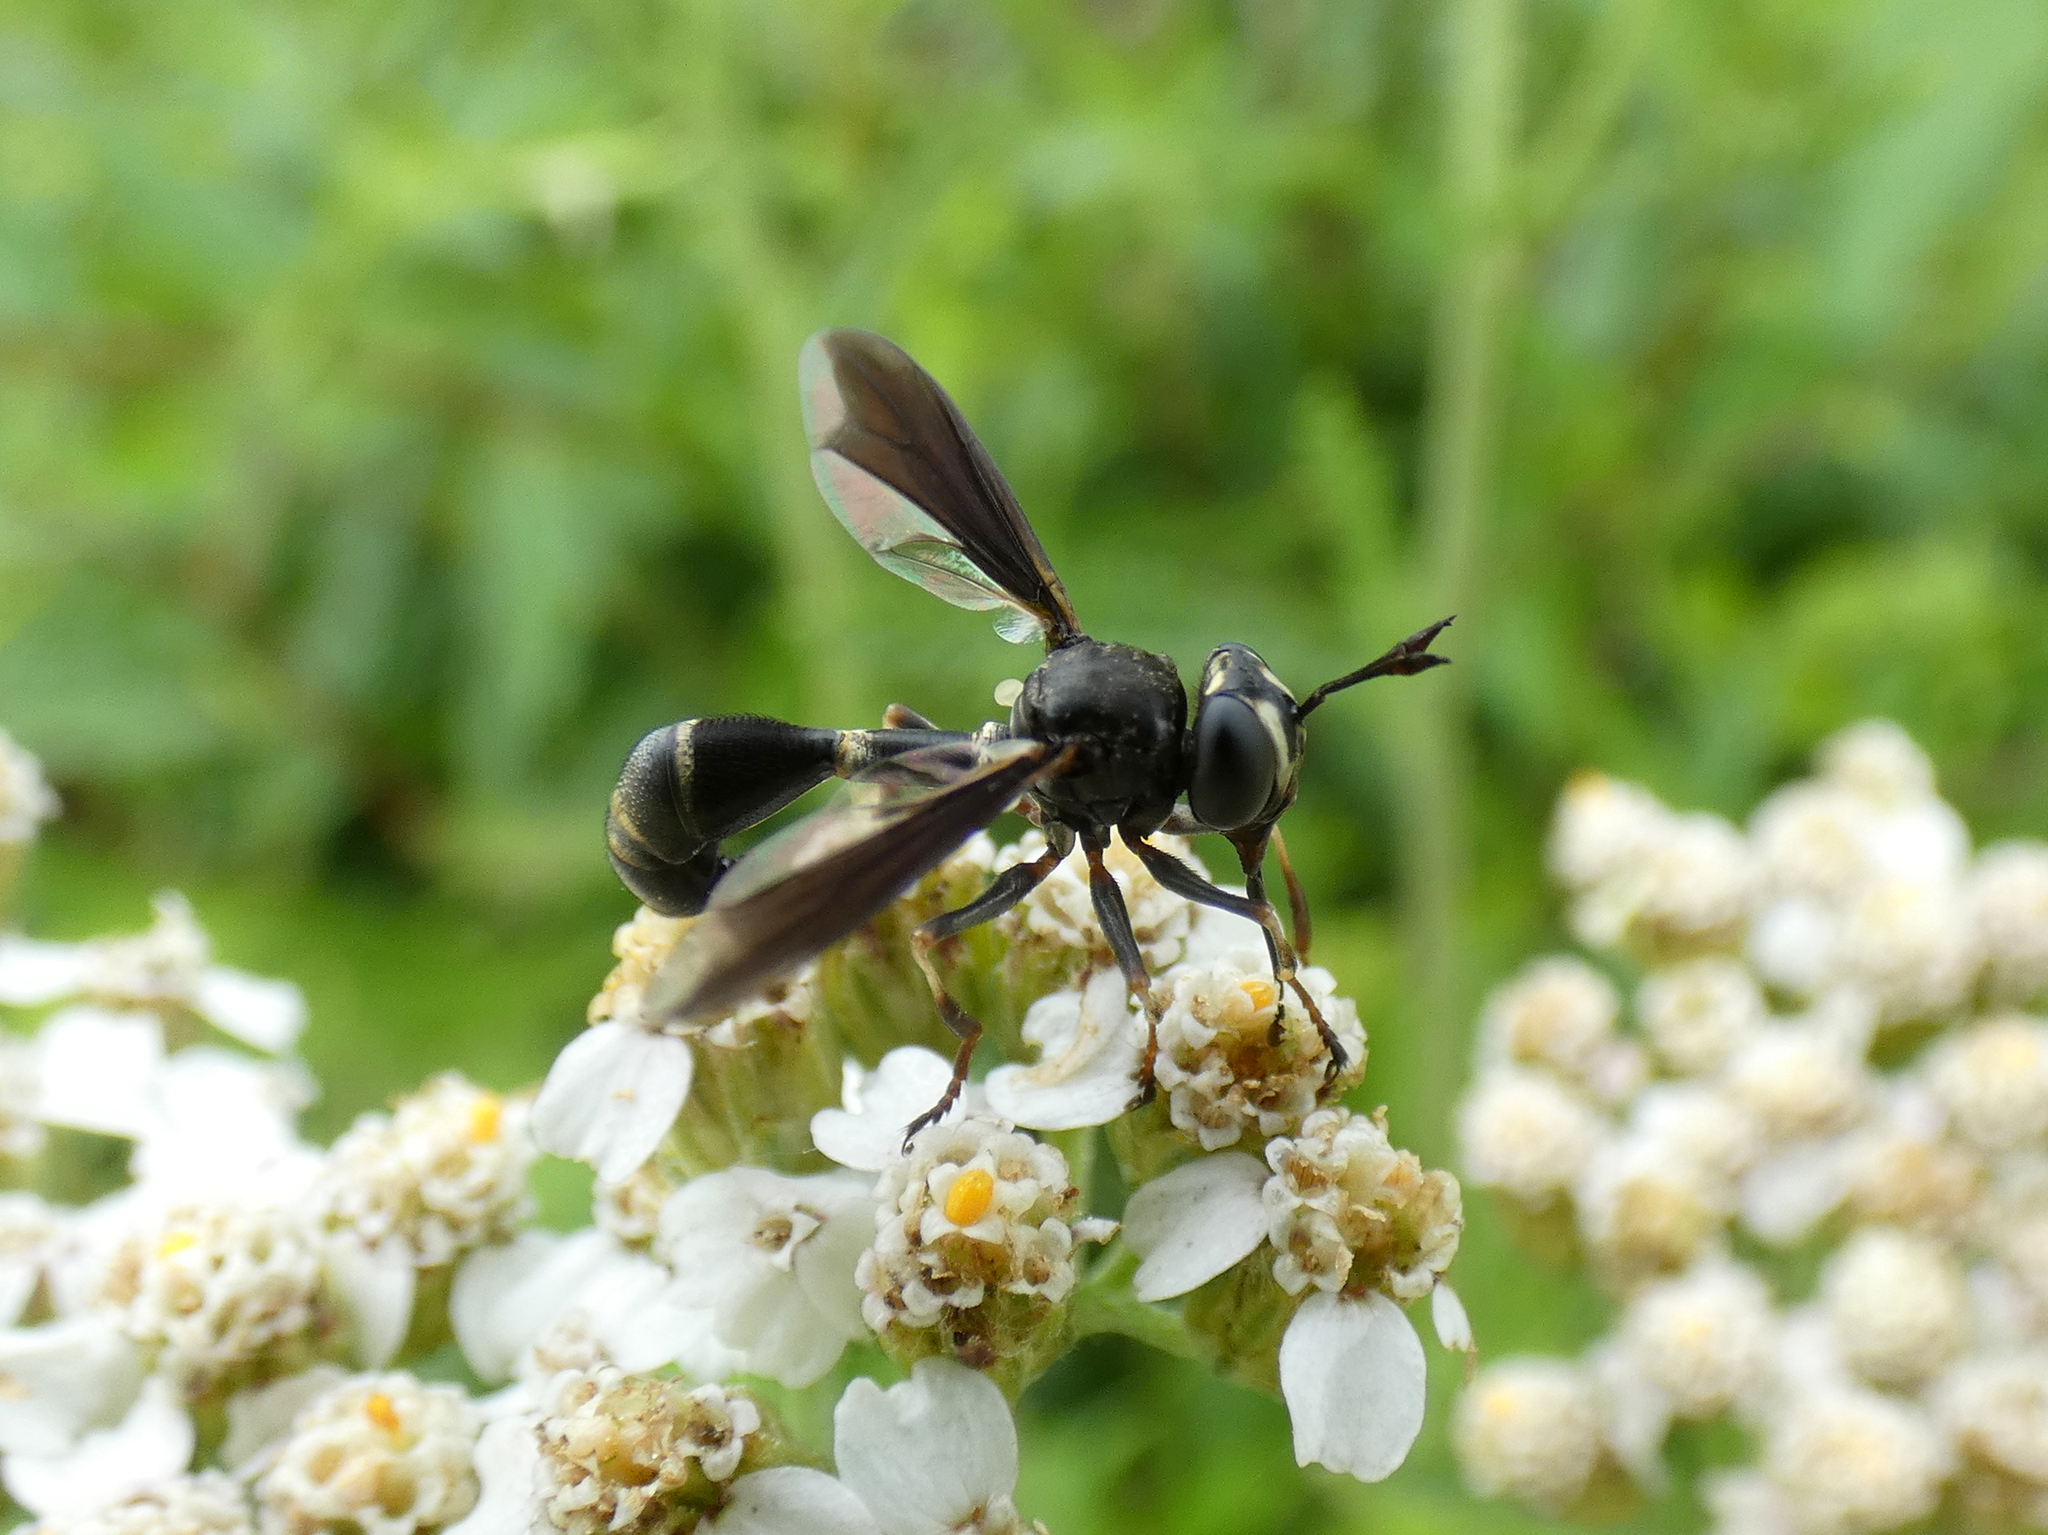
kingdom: Animalia
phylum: Arthropoda
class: Insecta
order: Diptera
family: Conopidae
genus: Physocephala
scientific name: Physocephala tibialis
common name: Common eastern physocephala
